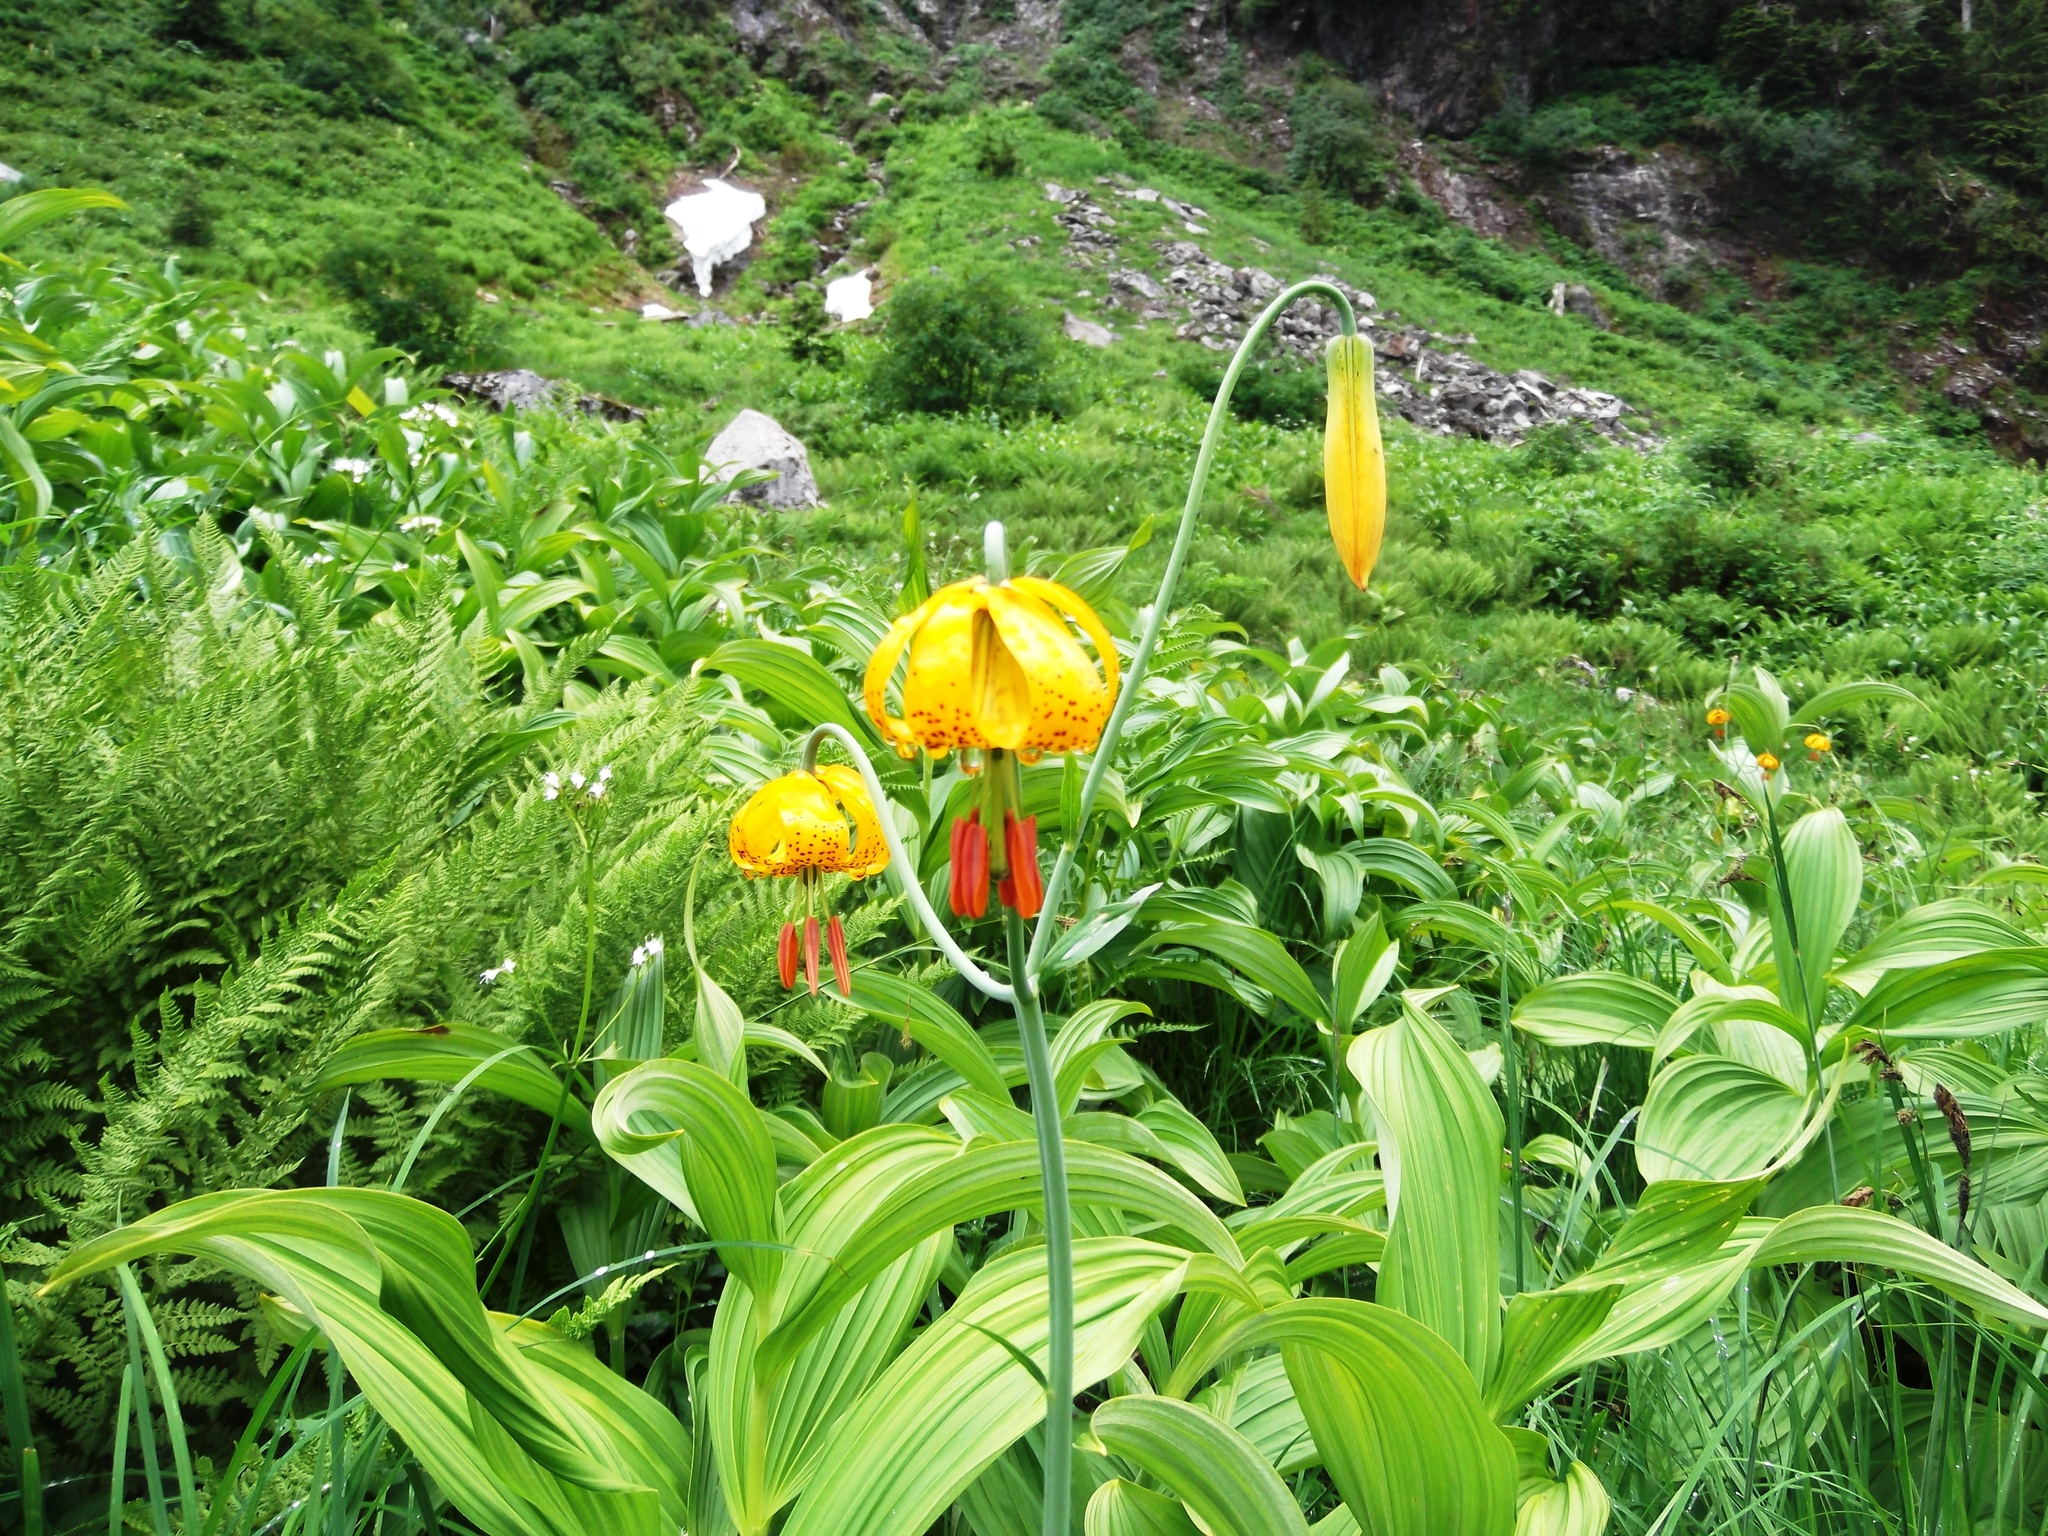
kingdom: Plantae
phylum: Tracheophyta
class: Liliopsida
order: Liliales
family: Liliaceae
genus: Lilium
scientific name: Lilium columbianum
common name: Columbia lily
